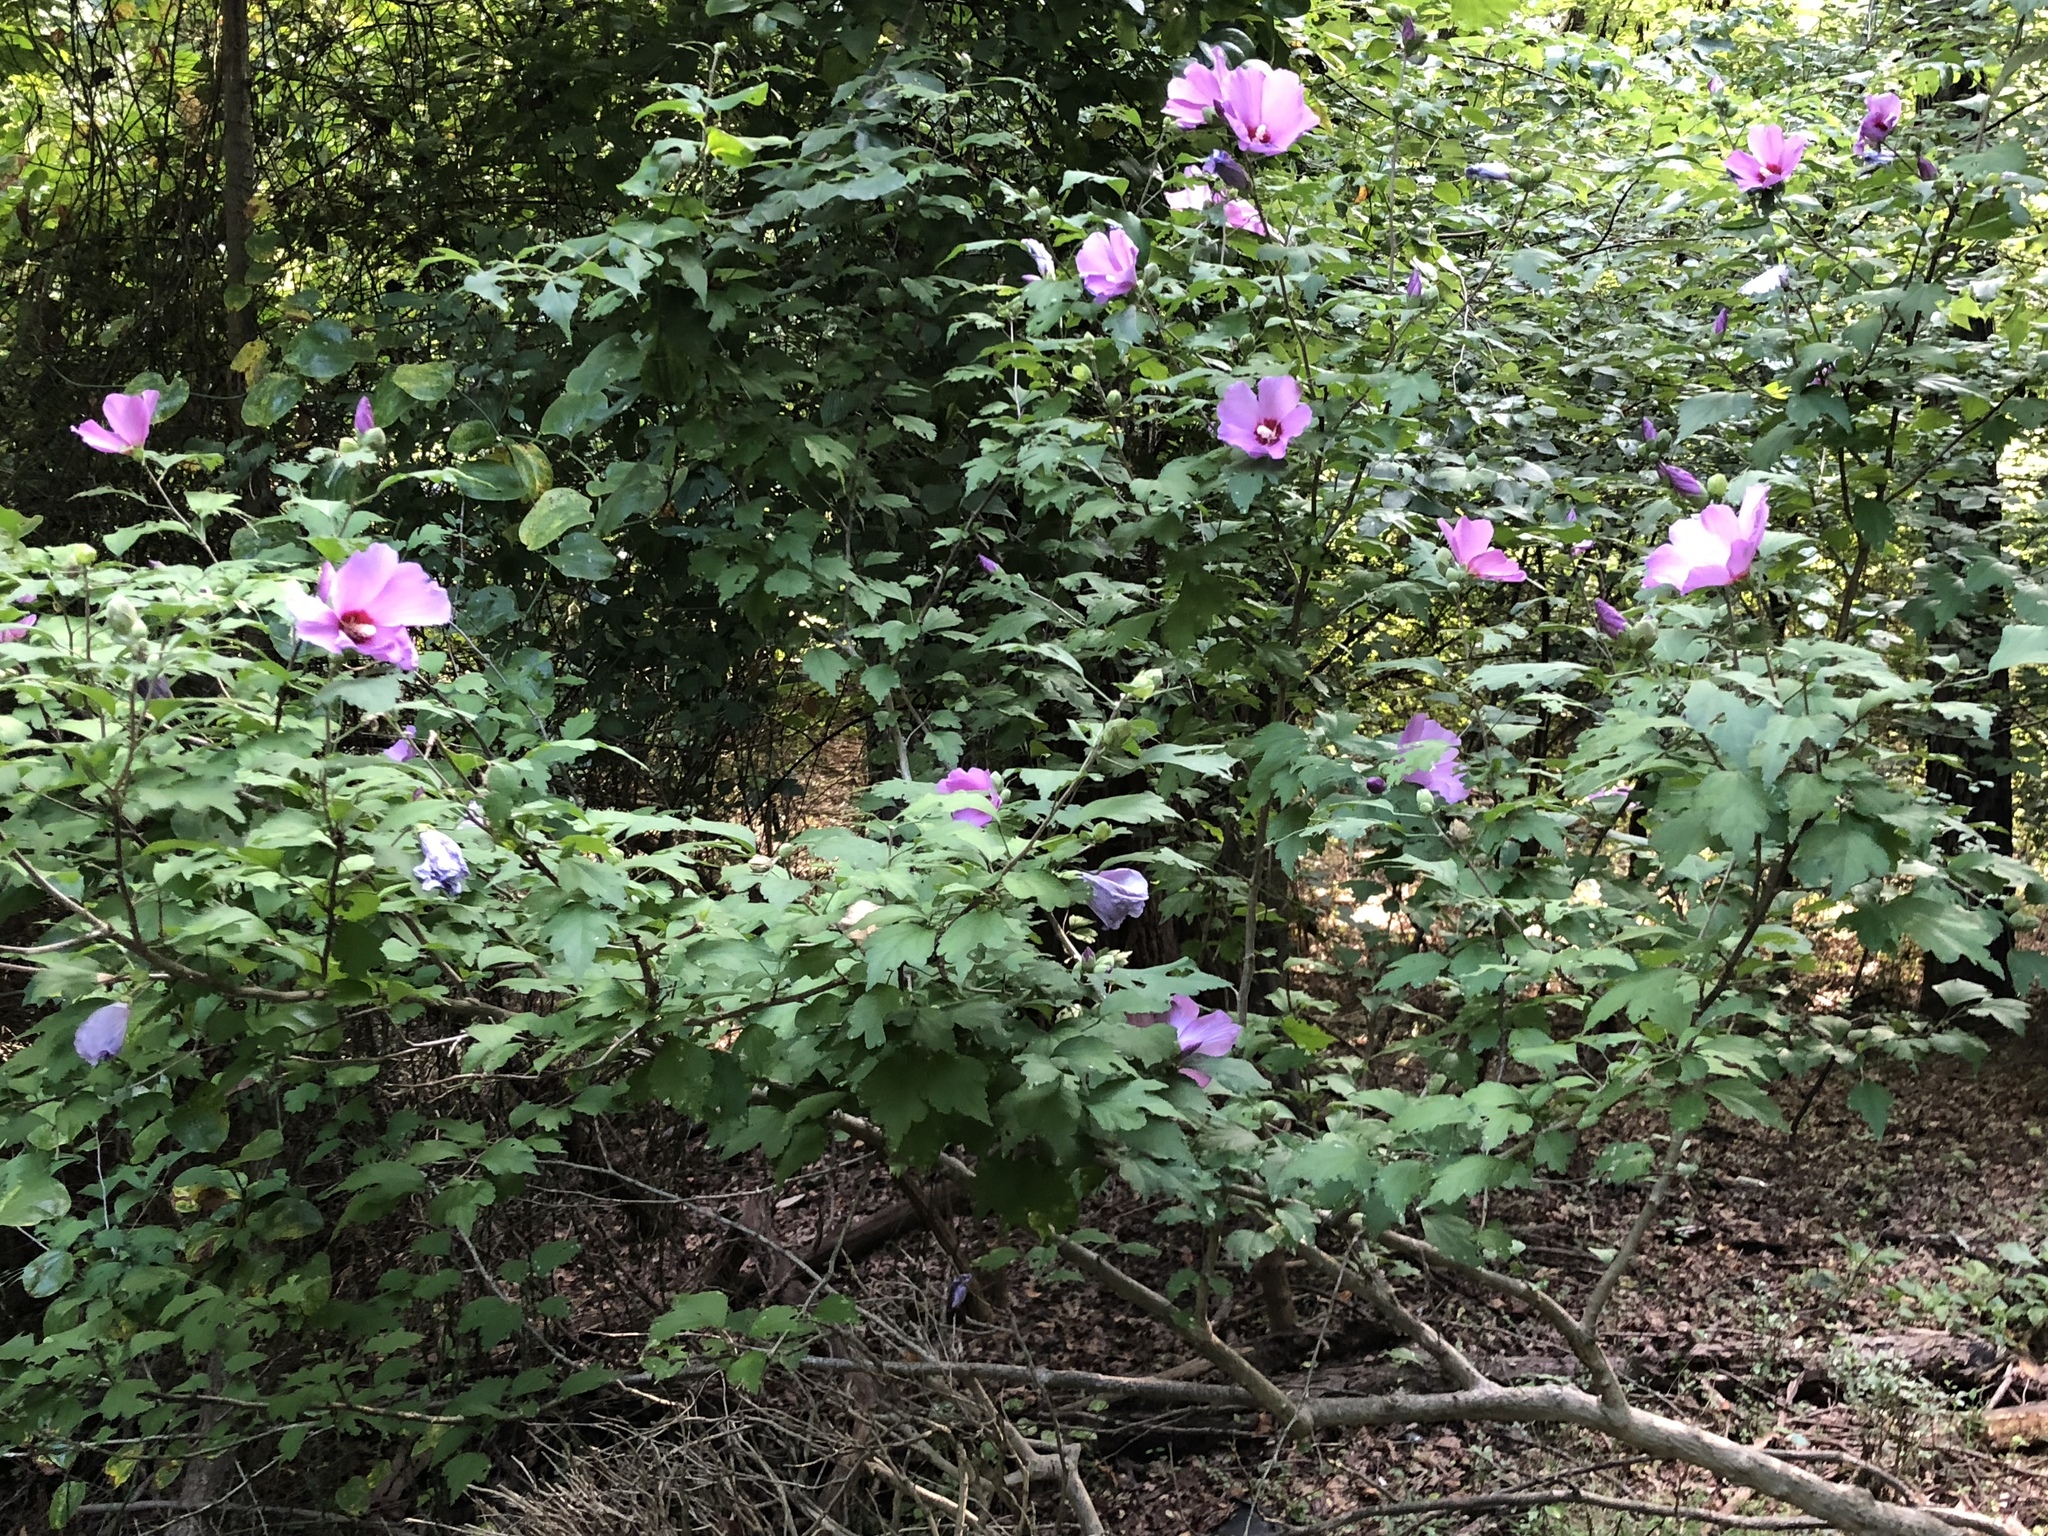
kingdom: Plantae
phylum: Tracheophyta
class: Magnoliopsida
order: Malvales
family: Malvaceae
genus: Hibiscus
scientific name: Hibiscus syriacus
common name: Syrian ketmia
